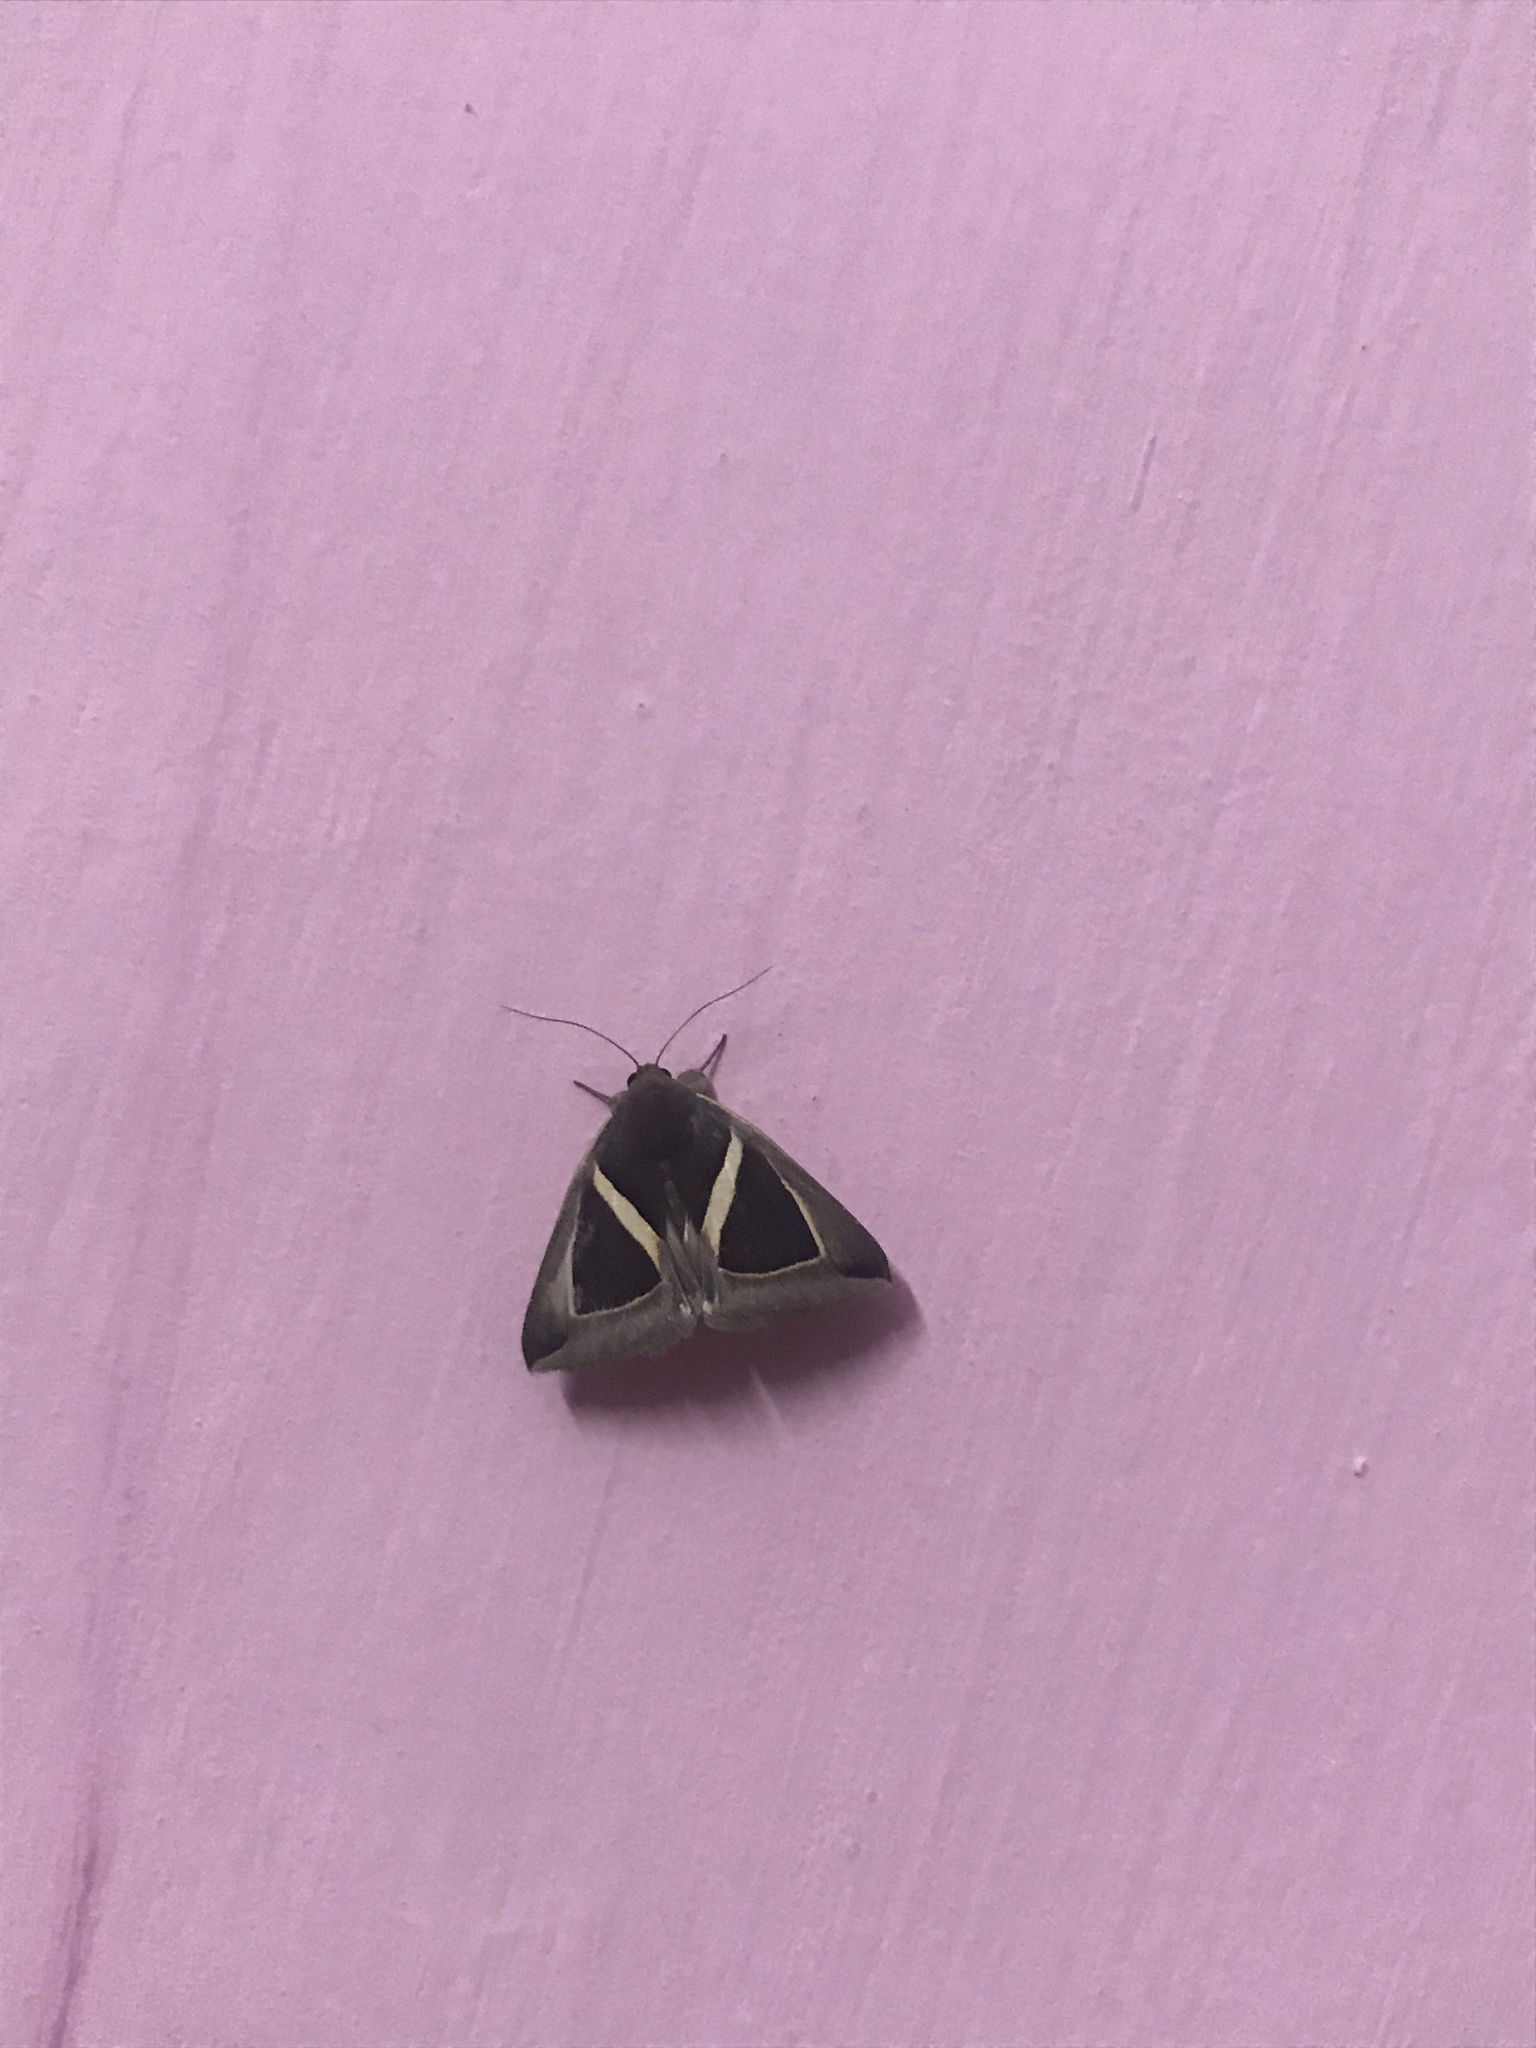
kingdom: Animalia
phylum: Arthropoda
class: Insecta
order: Lepidoptera
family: Erebidae
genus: Chalciope
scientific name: Chalciope mygdon
